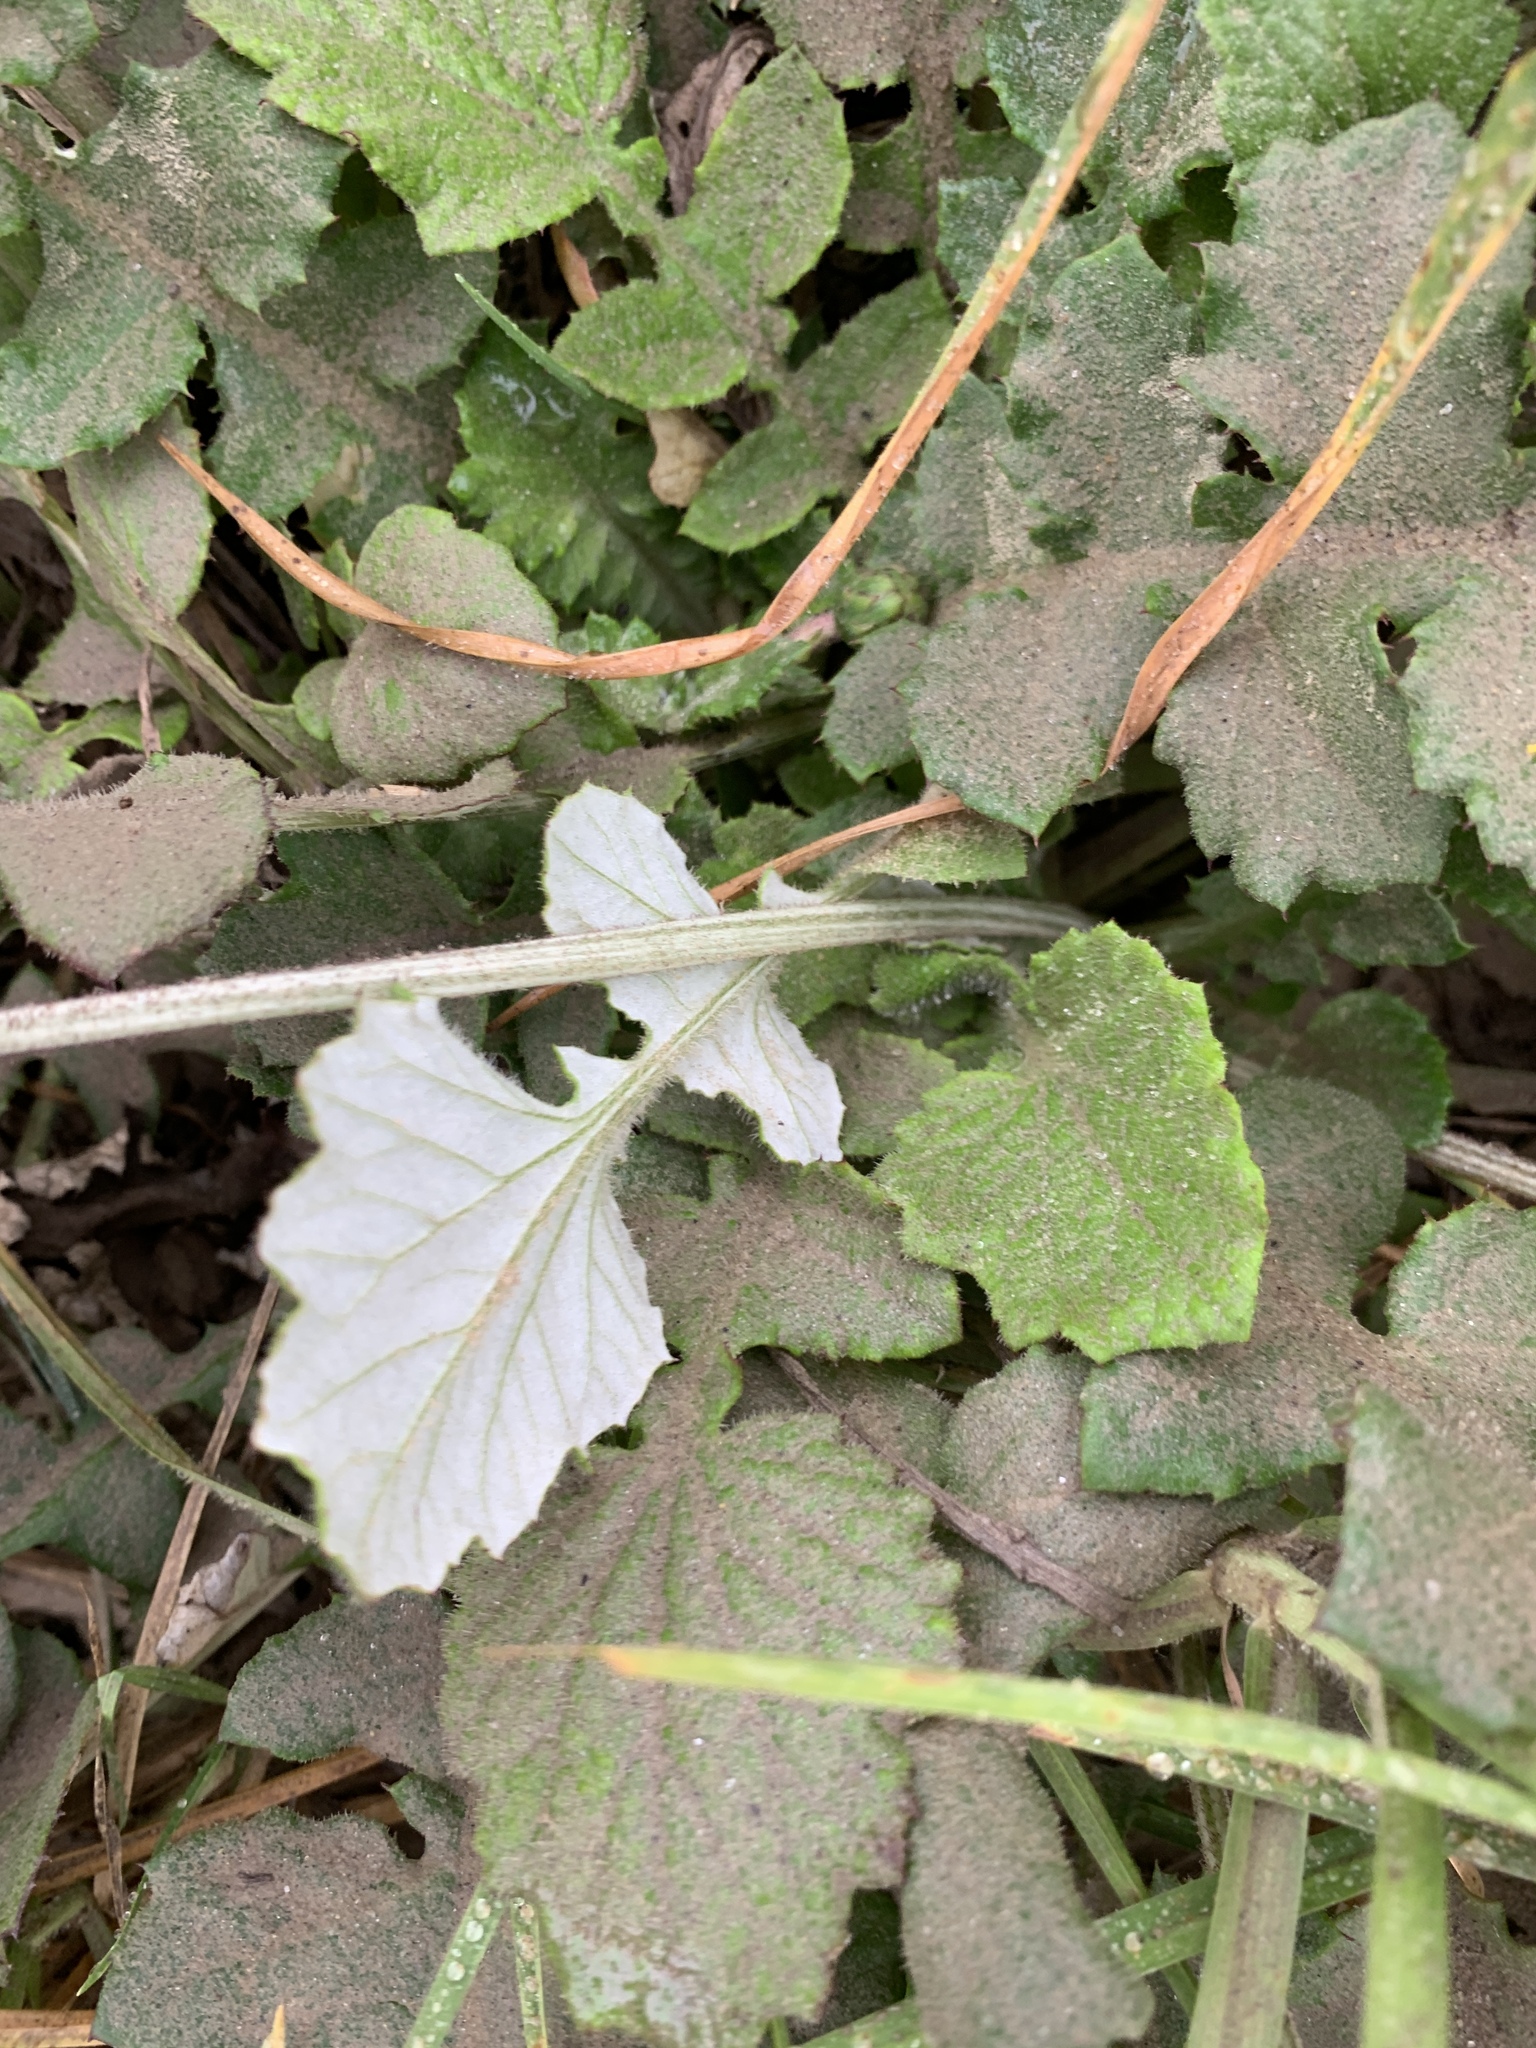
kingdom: Plantae
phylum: Tracheophyta
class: Magnoliopsida
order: Asterales
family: Asteraceae
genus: Arctotheca
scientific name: Arctotheca prostrata
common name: Capeweed
